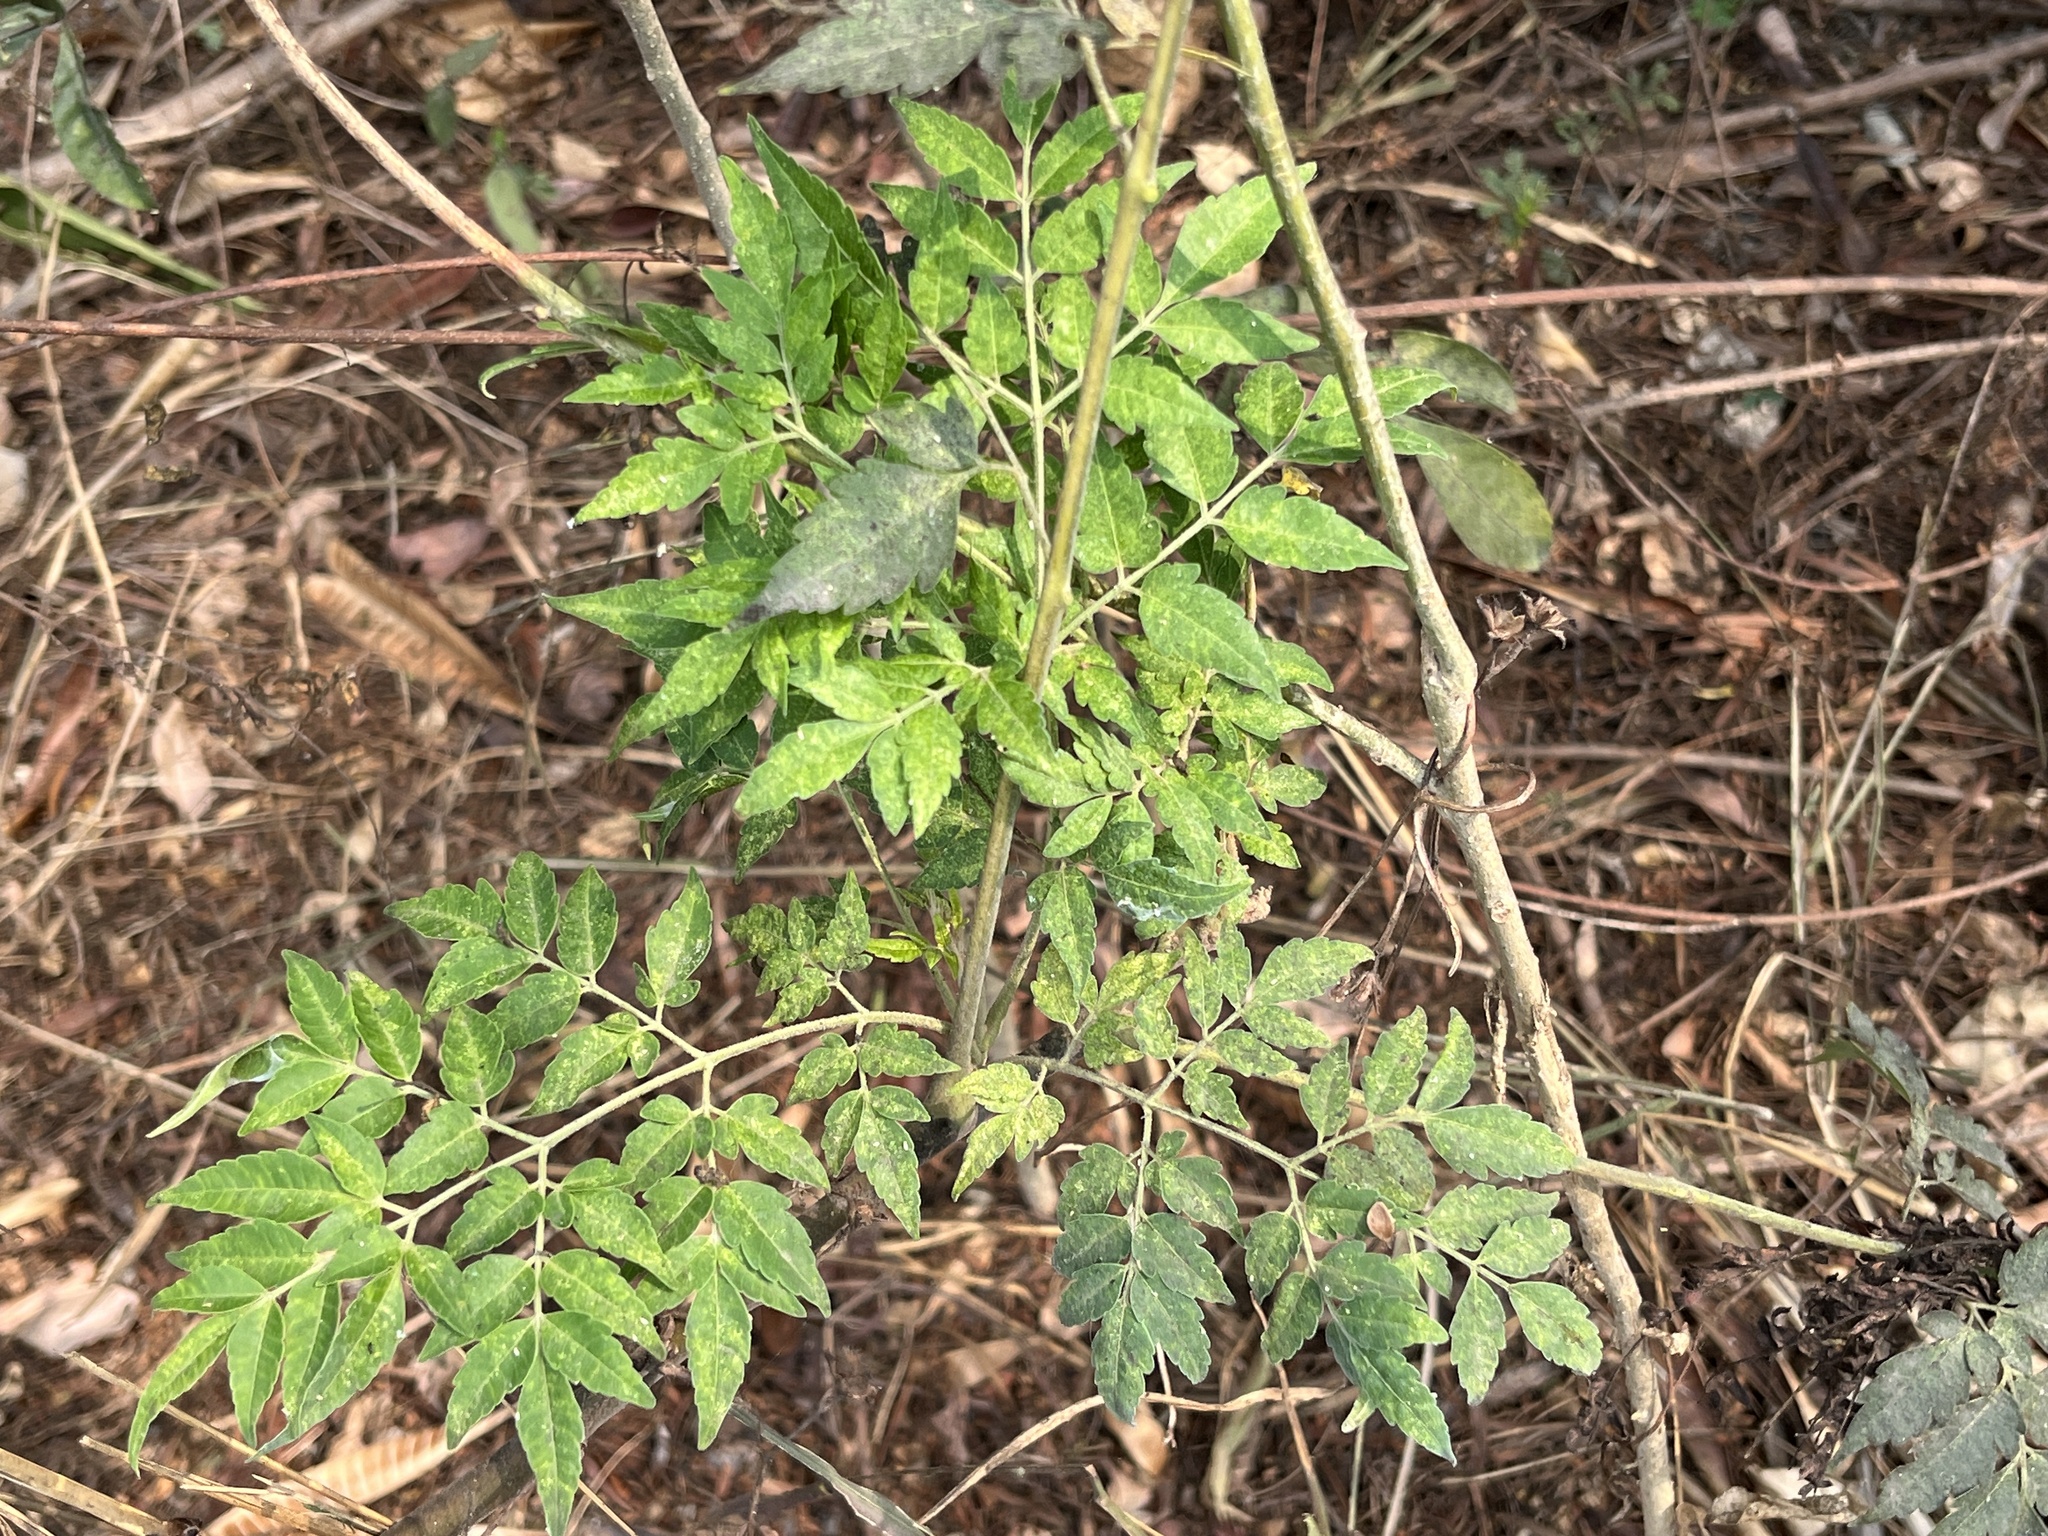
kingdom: Plantae
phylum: Tracheophyta
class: Magnoliopsida
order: Sapindales
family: Simaroubaceae
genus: Brucea
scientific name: Brucea javanica
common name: Macassar kernels
